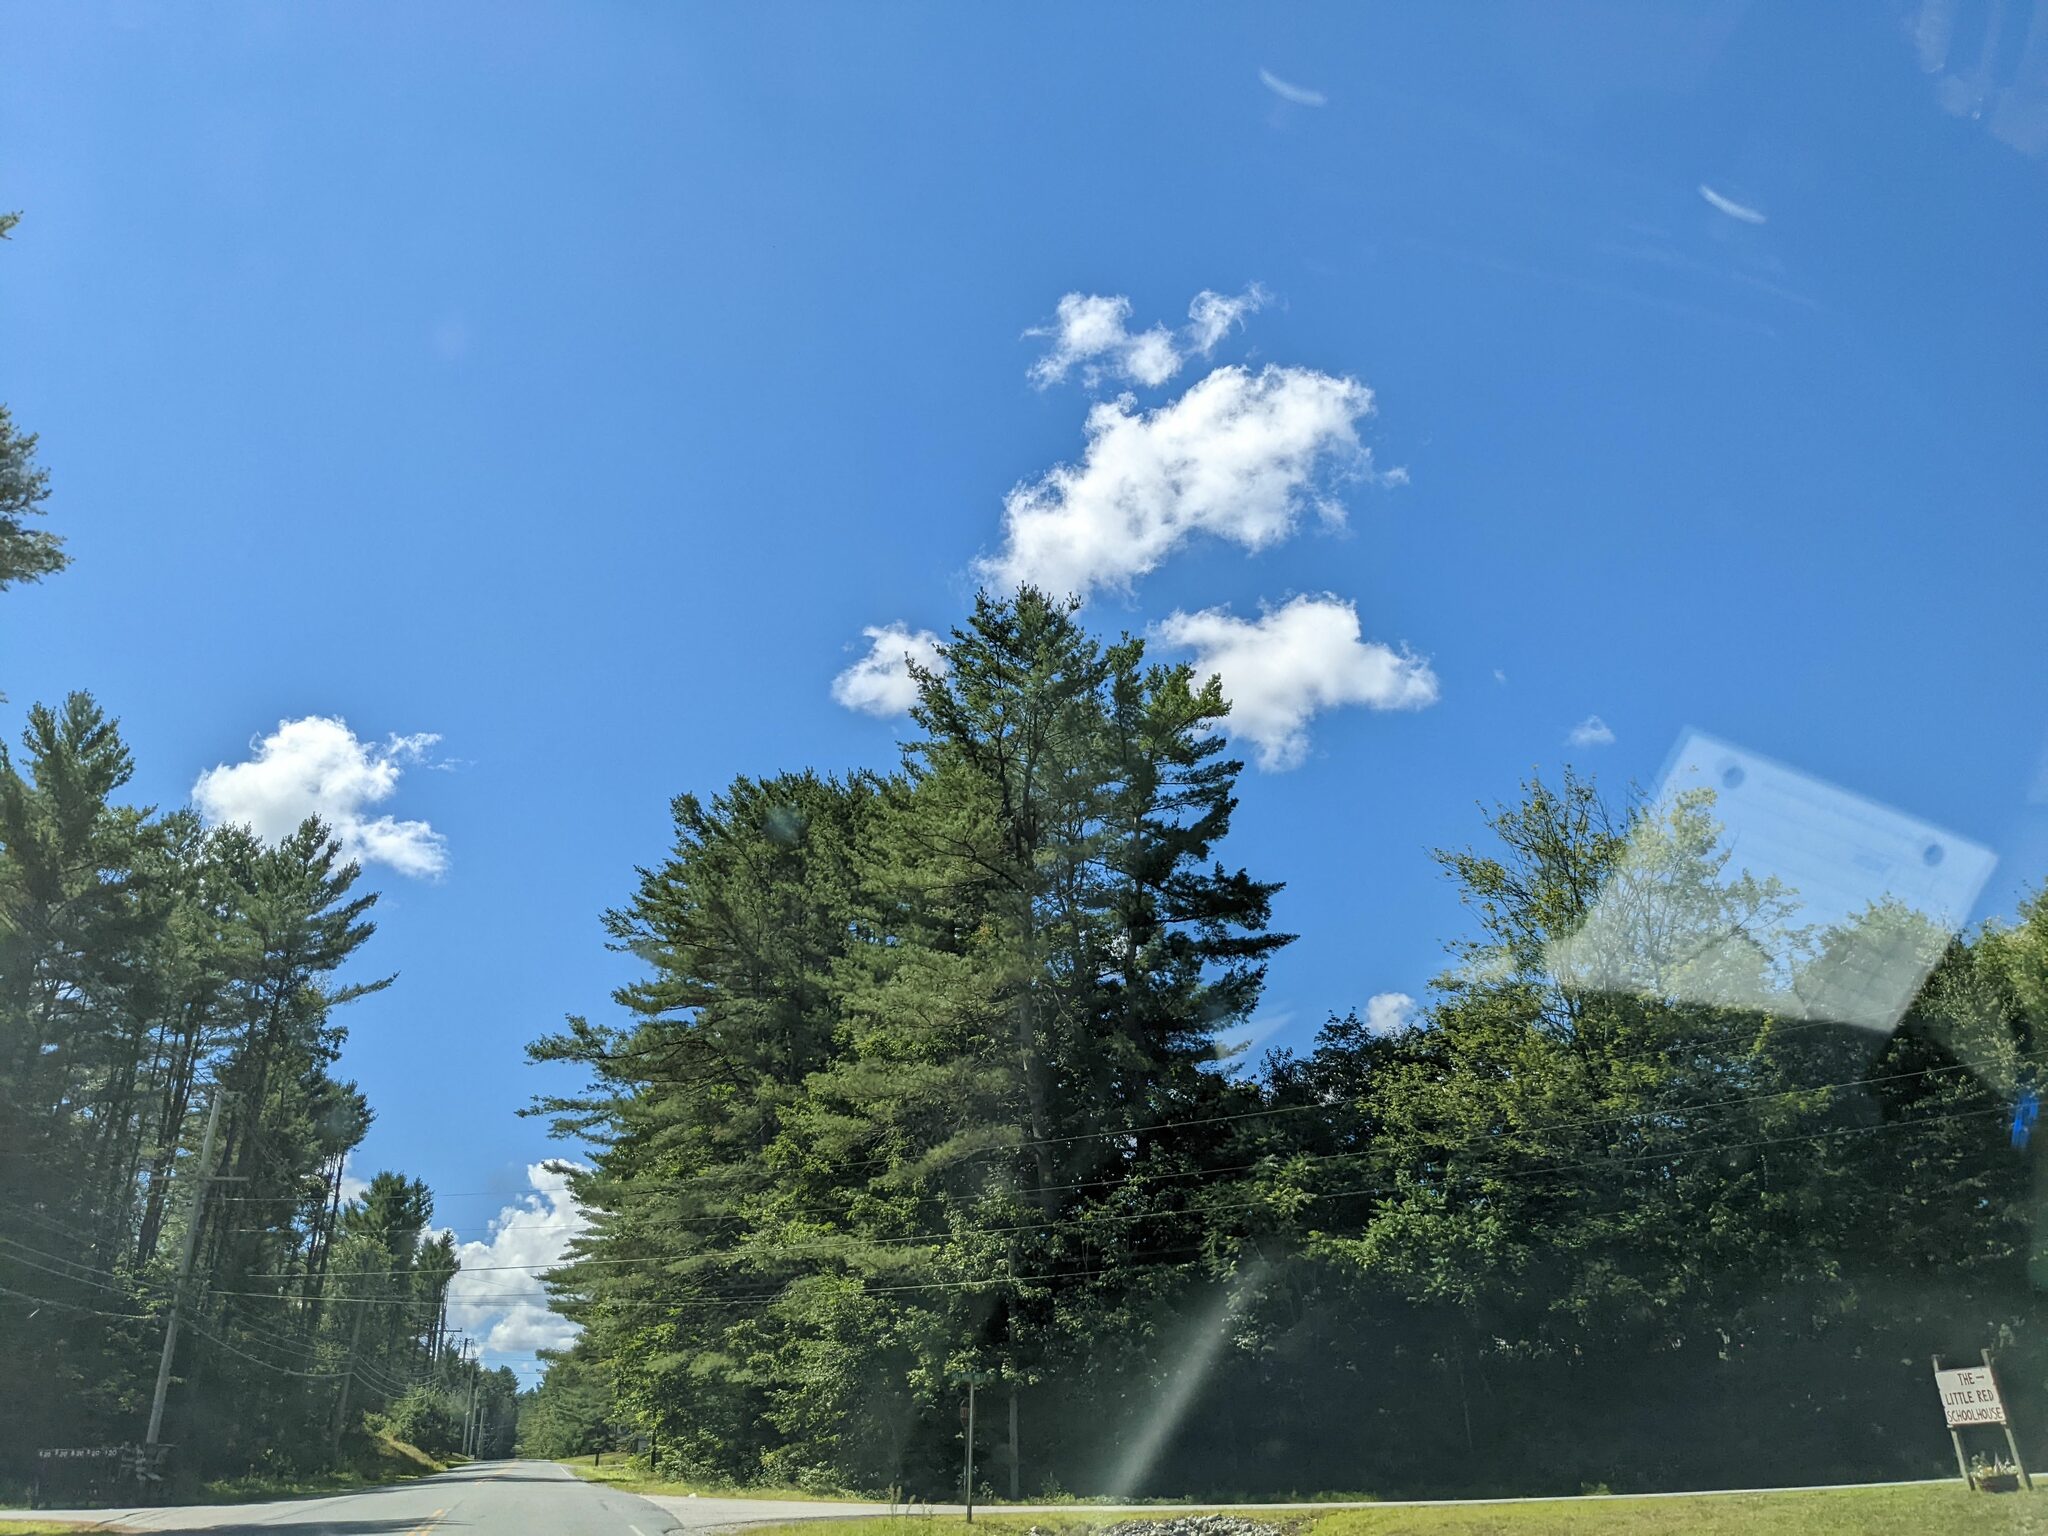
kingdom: Plantae
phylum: Tracheophyta
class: Pinopsida
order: Pinales
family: Pinaceae
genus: Pinus
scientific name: Pinus strobus
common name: Weymouth pine
